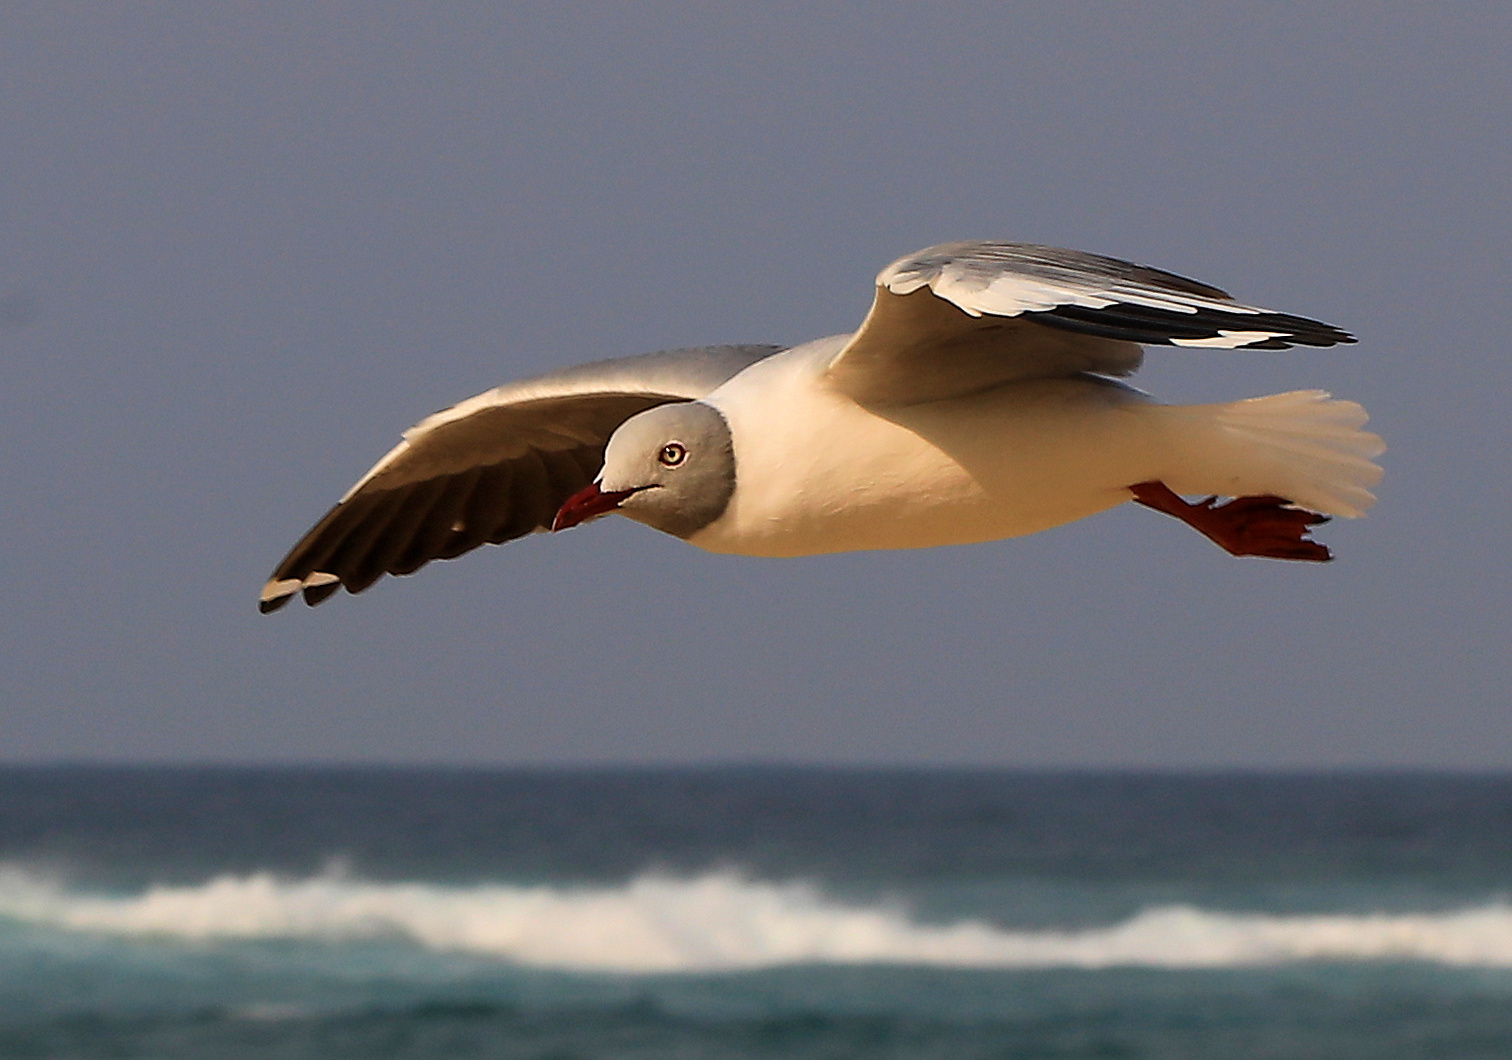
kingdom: Animalia
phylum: Chordata
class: Aves
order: Charadriiformes
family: Laridae
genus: Chroicocephalus
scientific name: Chroicocephalus cirrocephalus
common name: Grey-headed gull
